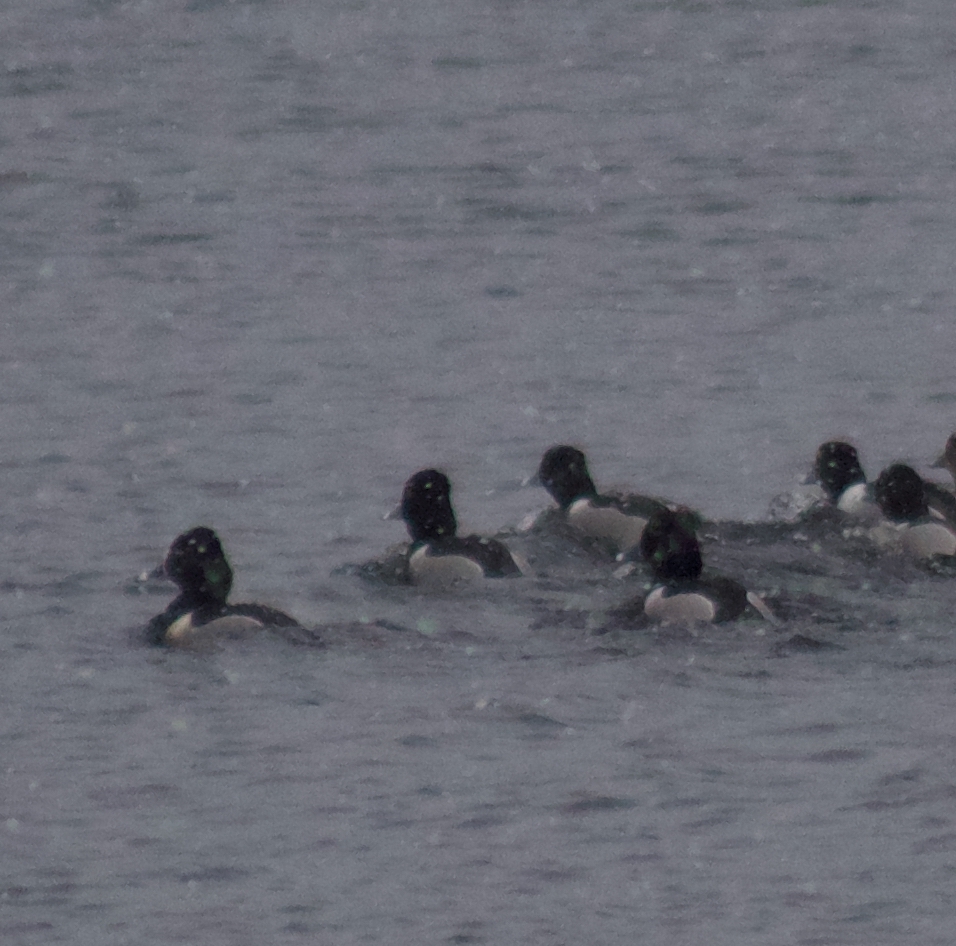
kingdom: Animalia
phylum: Chordata
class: Aves
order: Anseriformes
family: Anatidae
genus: Aythya
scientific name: Aythya collaris
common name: Ring-necked duck
